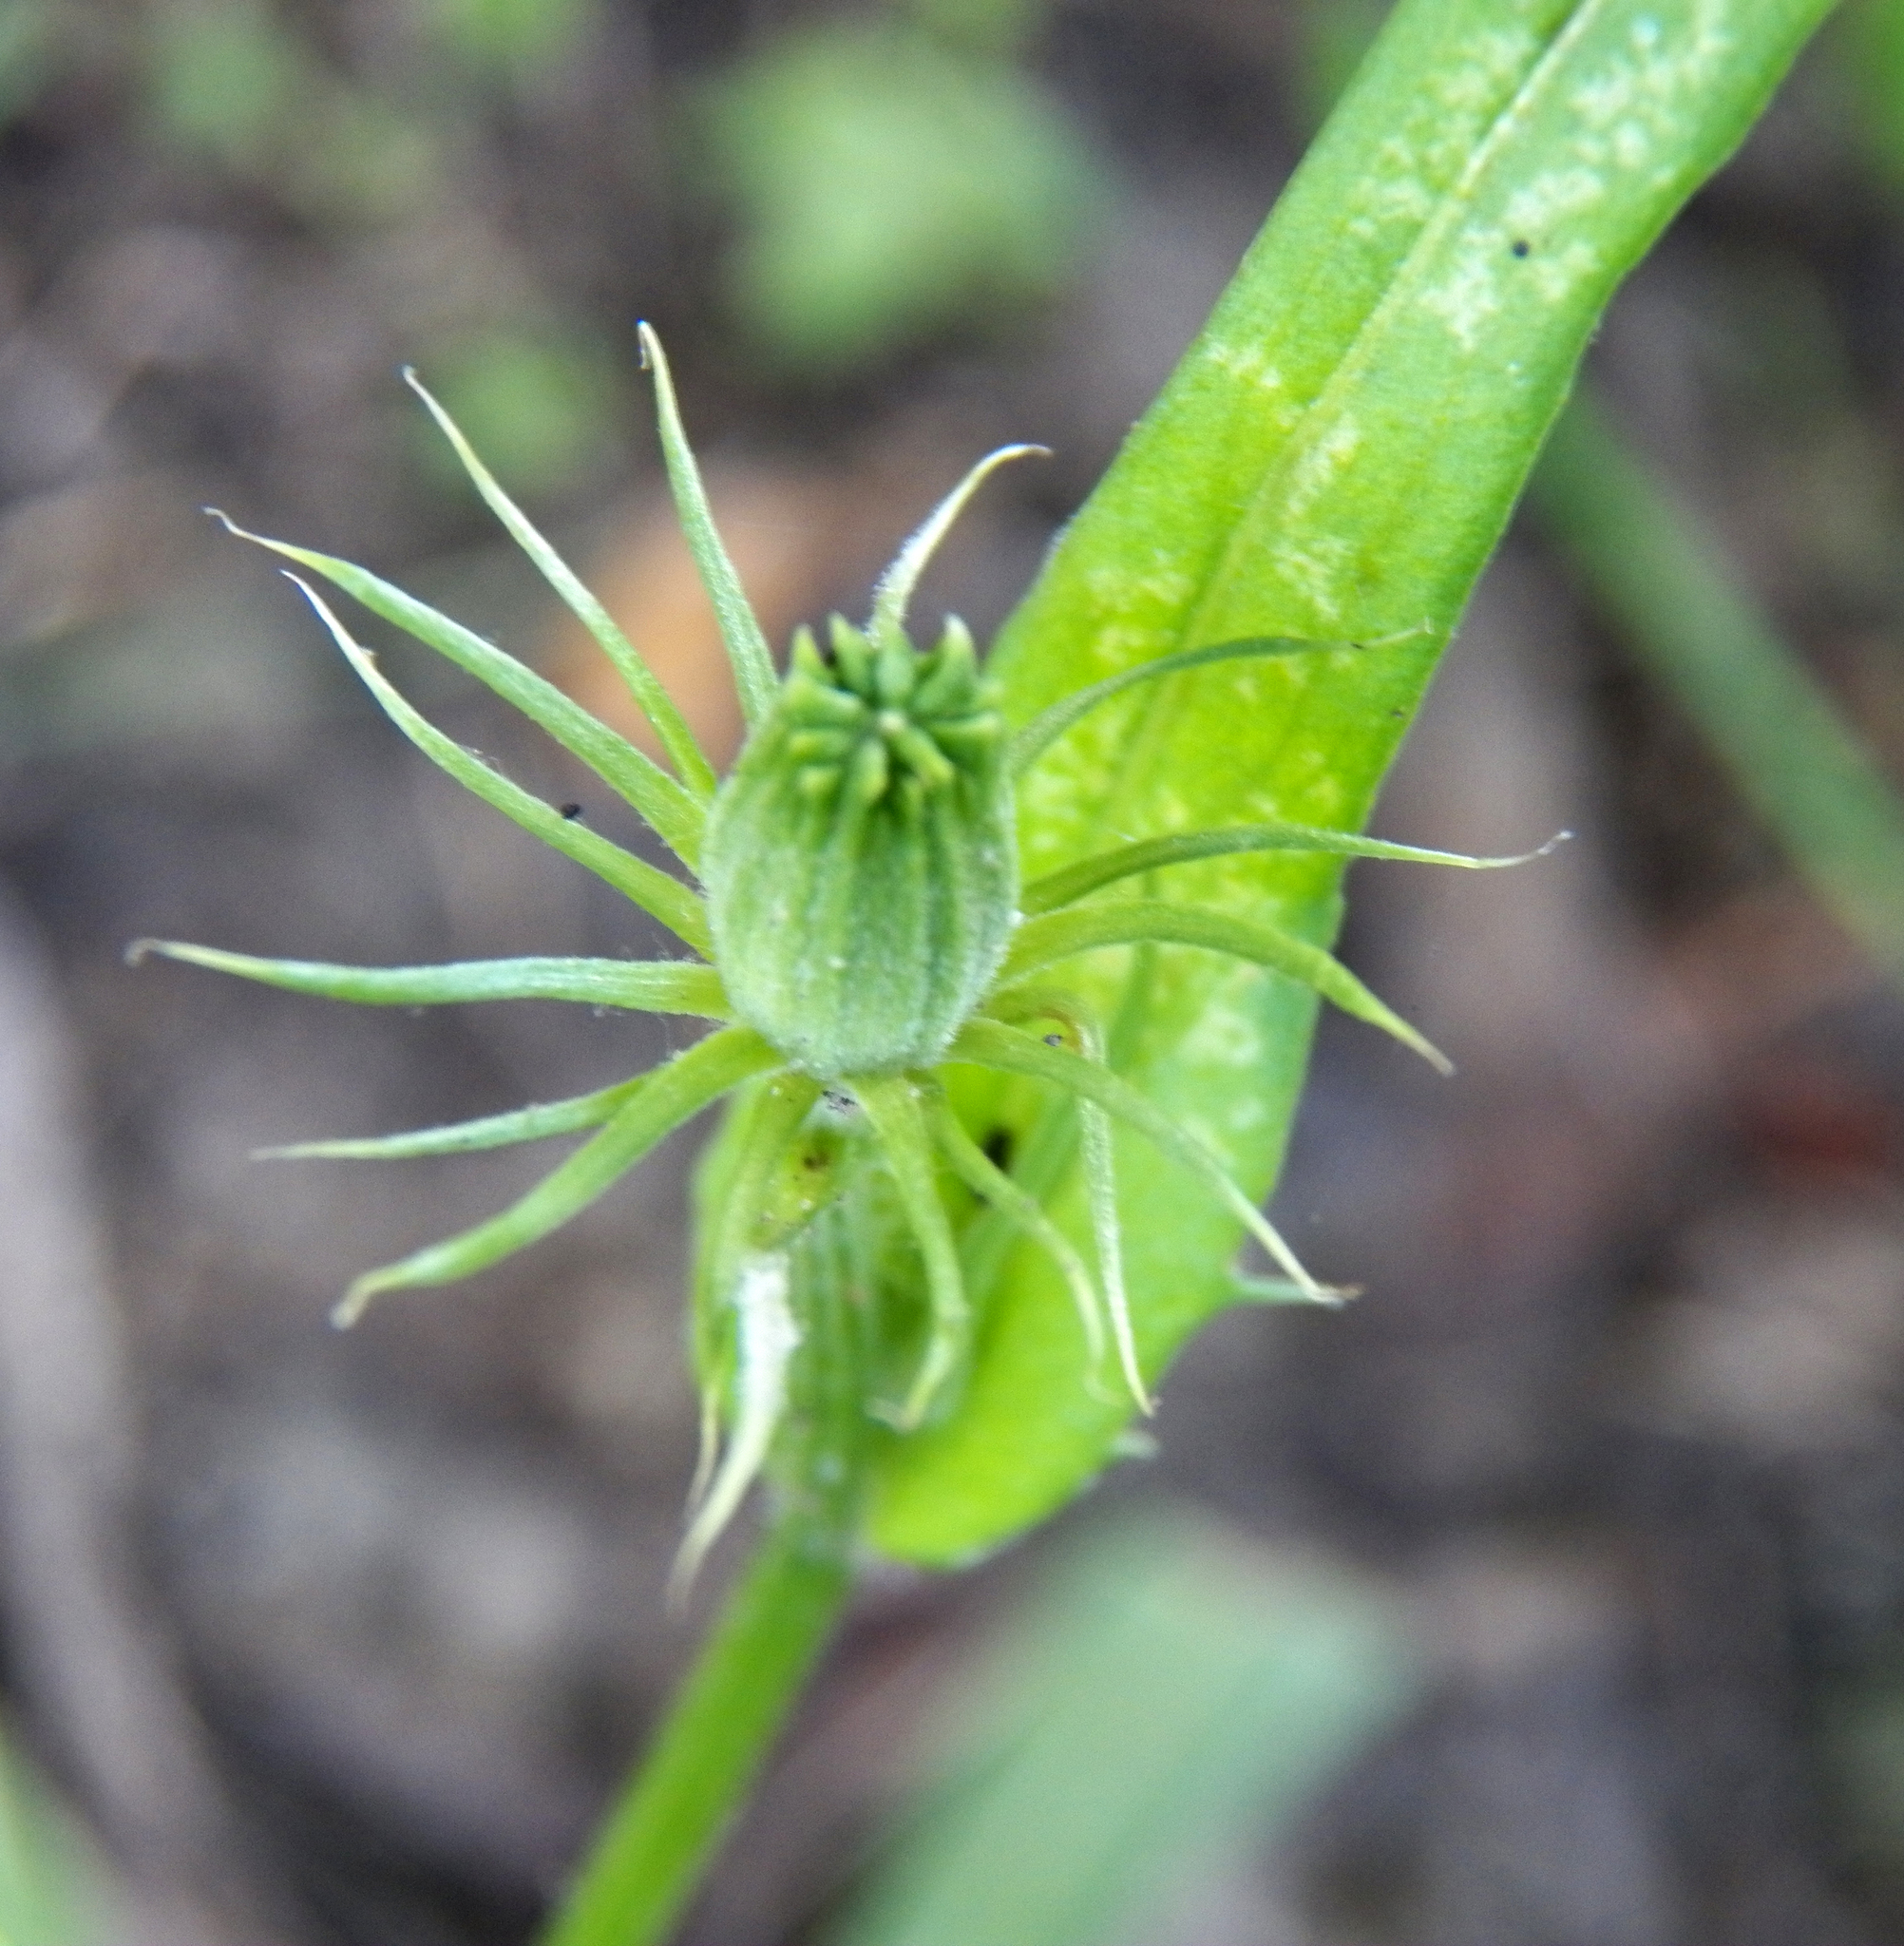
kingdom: Plantae
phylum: Tracheophyta
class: Magnoliopsida
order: Asterales
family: Asteraceae
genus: Pyrrhopappus
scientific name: Pyrrhopappus carolinianus
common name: Carolina desert-chicory
